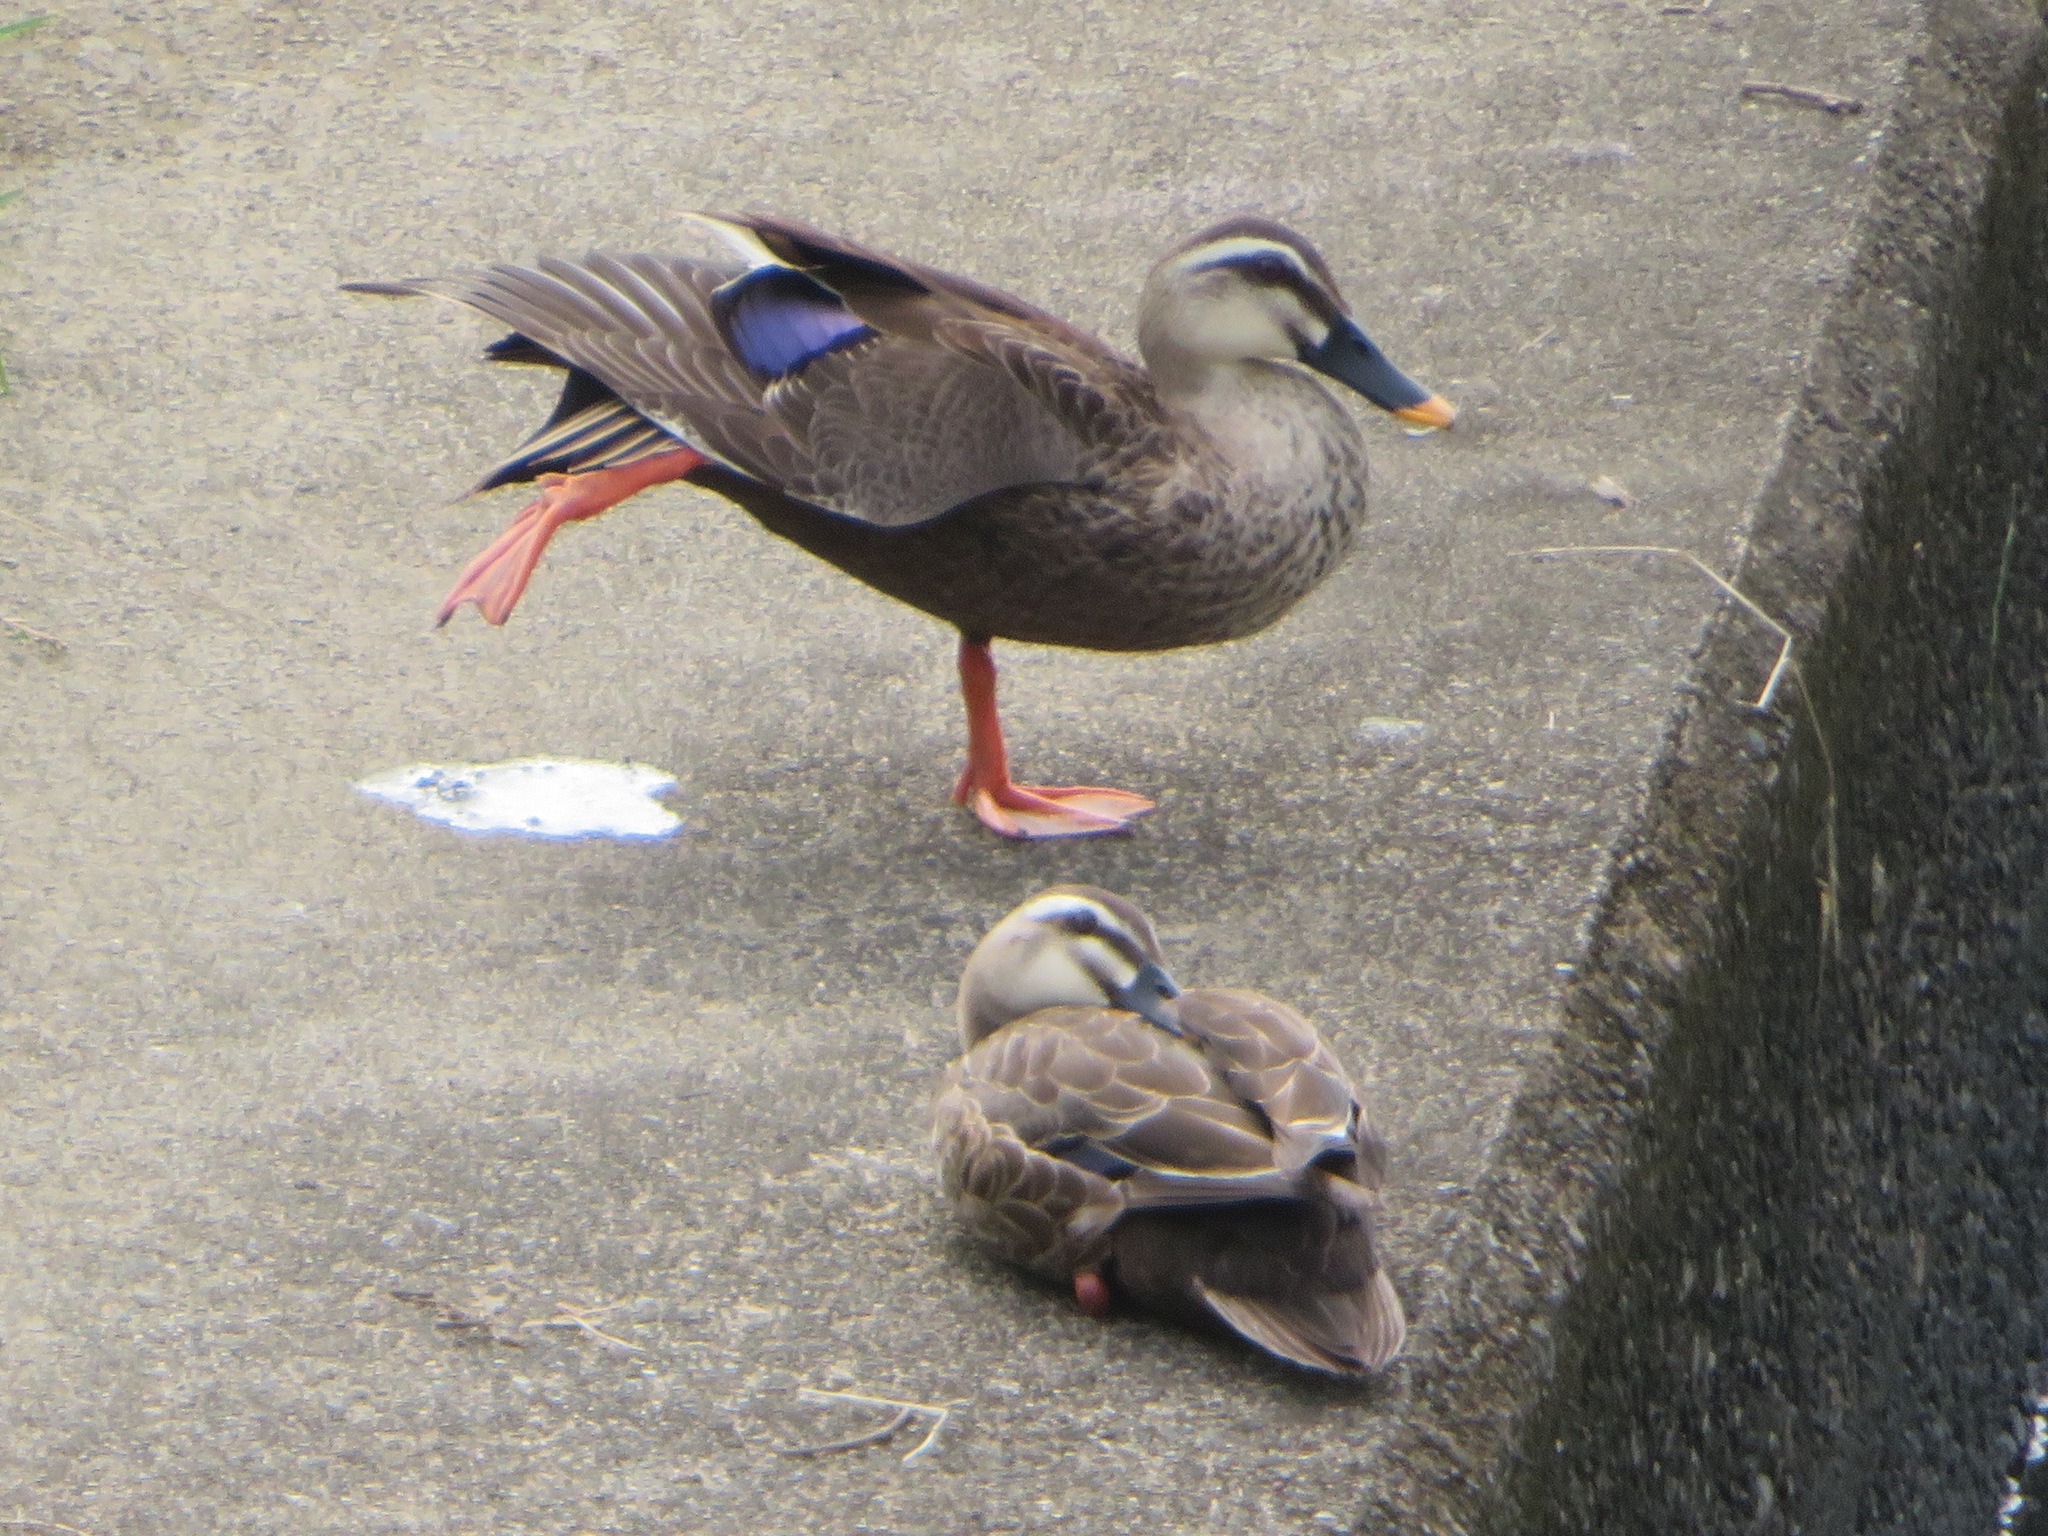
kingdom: Animalia
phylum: Chordata
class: Aves
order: Anseriformes
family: Anatidae
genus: Anas
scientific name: Anas zonorhyncha
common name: Eastern spot-billed duck
